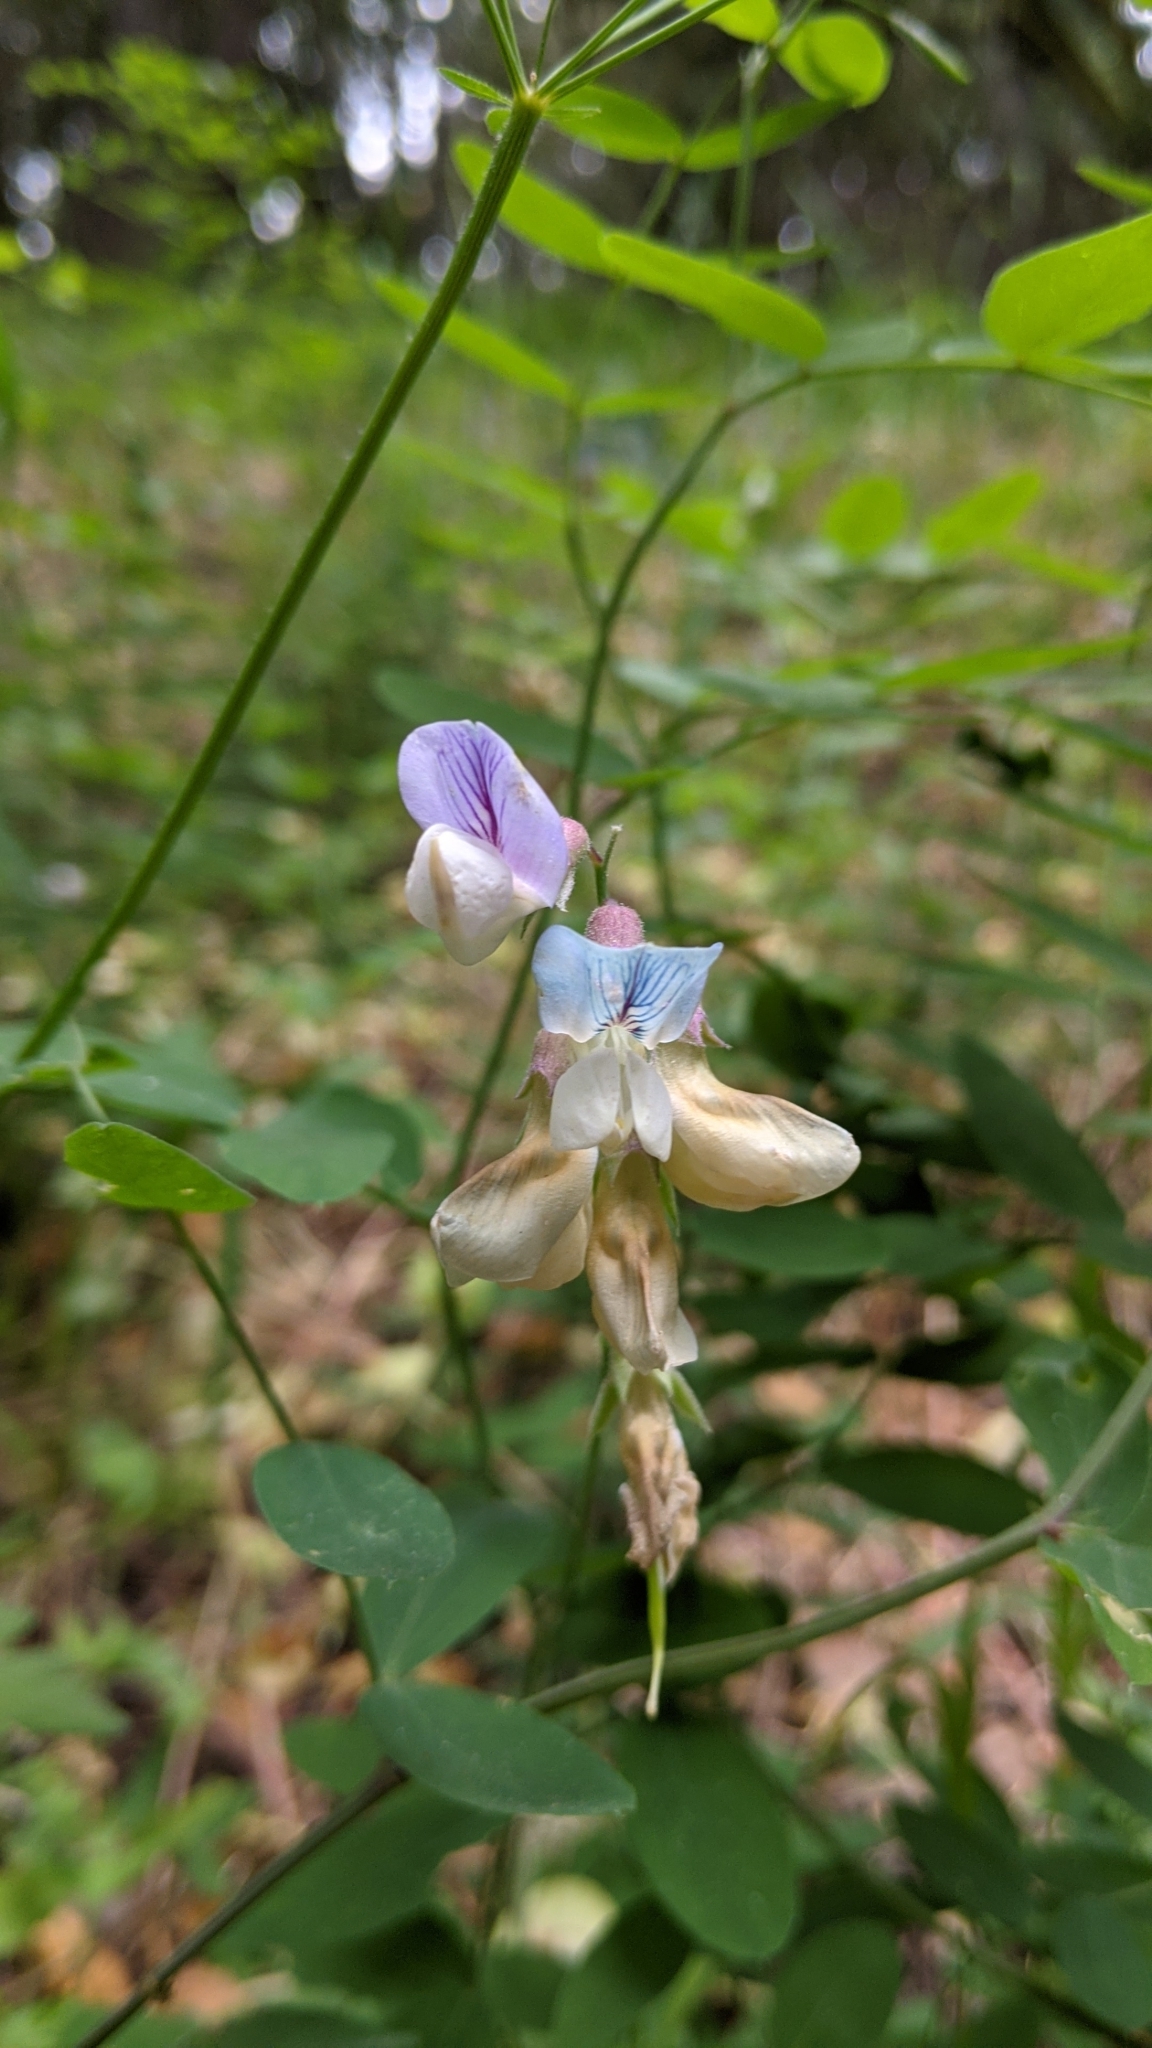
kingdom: Plantae
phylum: Tracheophyta
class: Magnoliopsida
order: Fabales
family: Fabaceae
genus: Lathyrus
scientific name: Lathyrus vestitus
